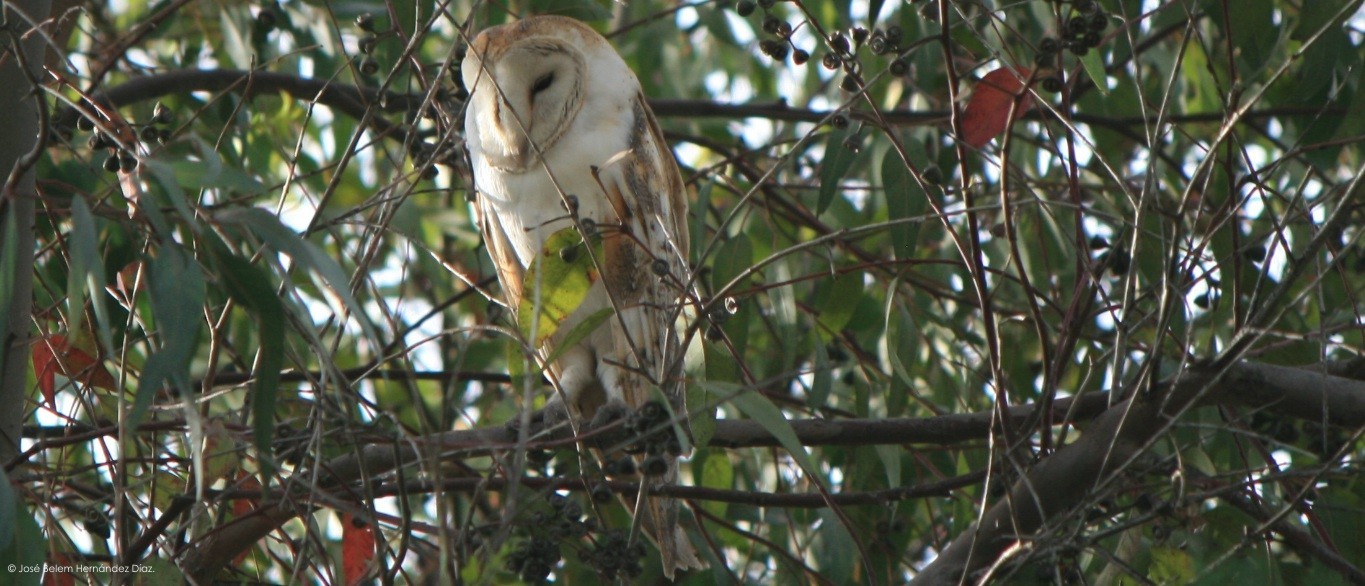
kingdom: Animalia
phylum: Chordata
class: Aves
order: Strigiformes
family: Tytonidae
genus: Tyto
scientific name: Tyto alba
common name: Barn owl
